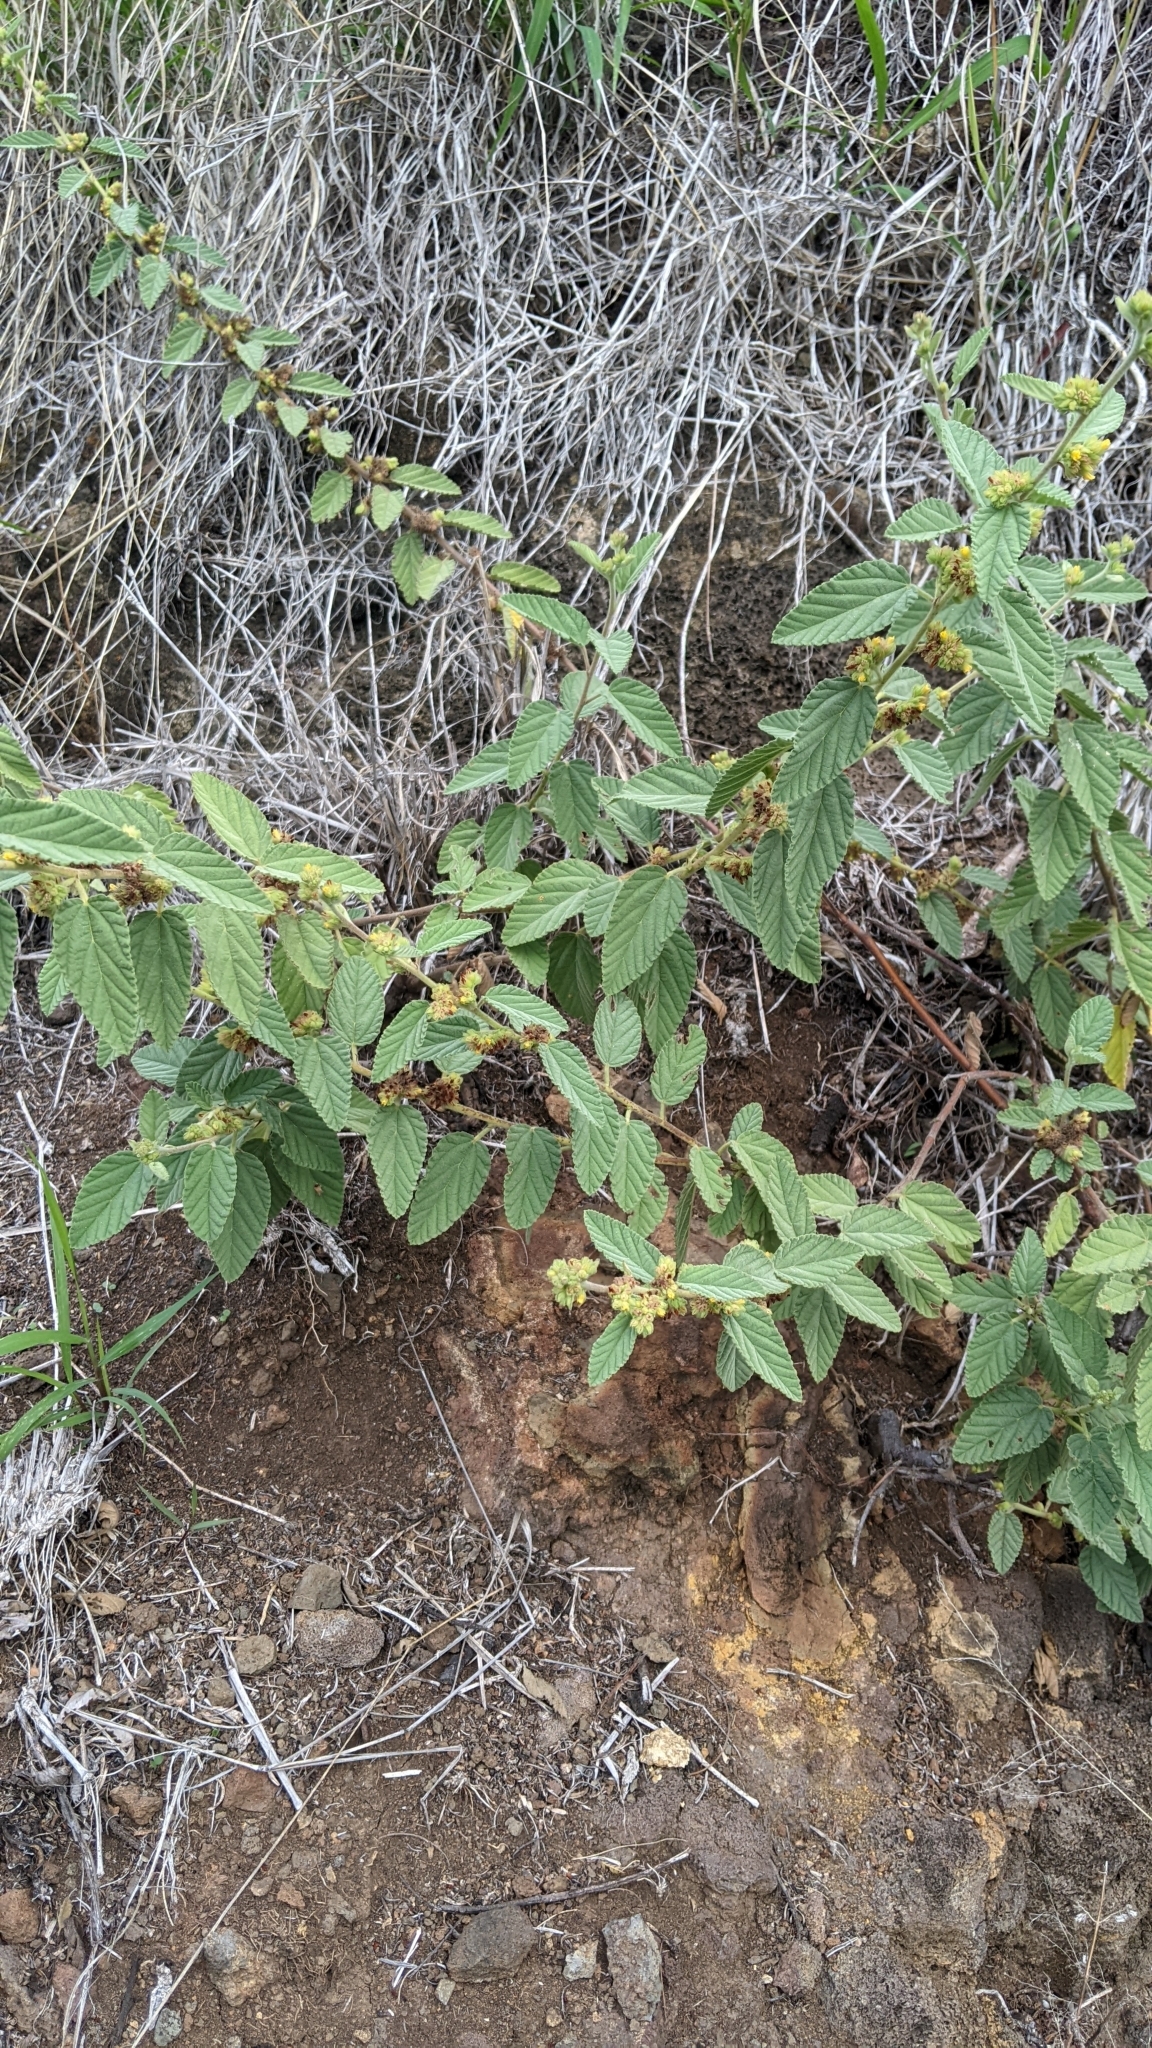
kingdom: Plantae
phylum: Tracheophyta
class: Magnoliopsida
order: Malvales
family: Malvaceae
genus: Waltheria
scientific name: Waltheria indica
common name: Leather-coat
